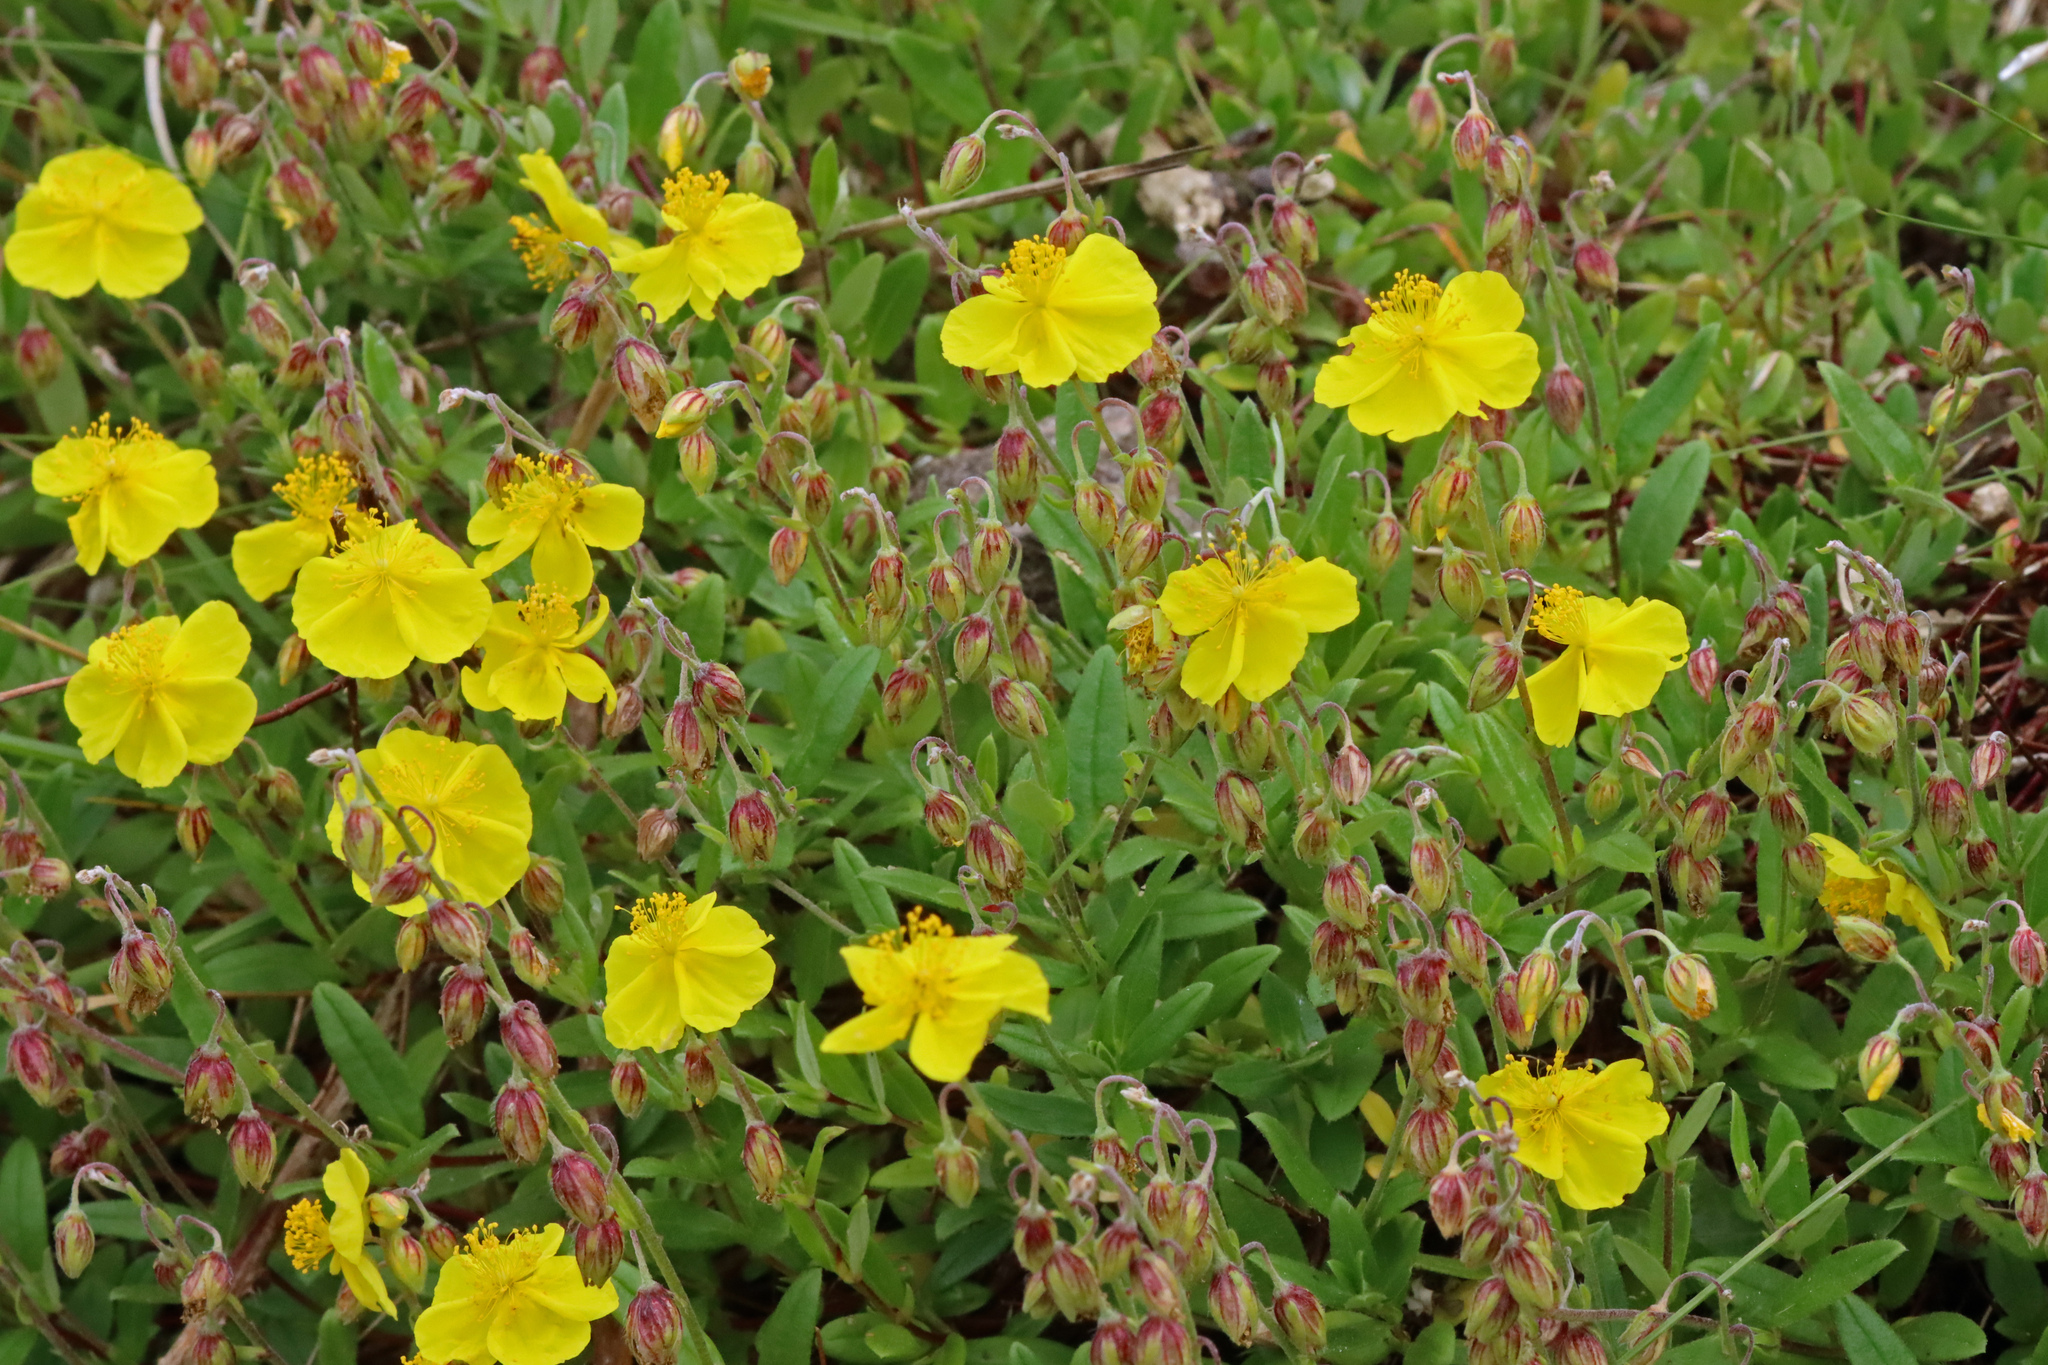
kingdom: Plantae
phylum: Tracheophyta
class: Magnoliopsida
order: Malvales
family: Cistaceae
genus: Helianthemum
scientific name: Helianthemum nummularium
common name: Common rock-rose
